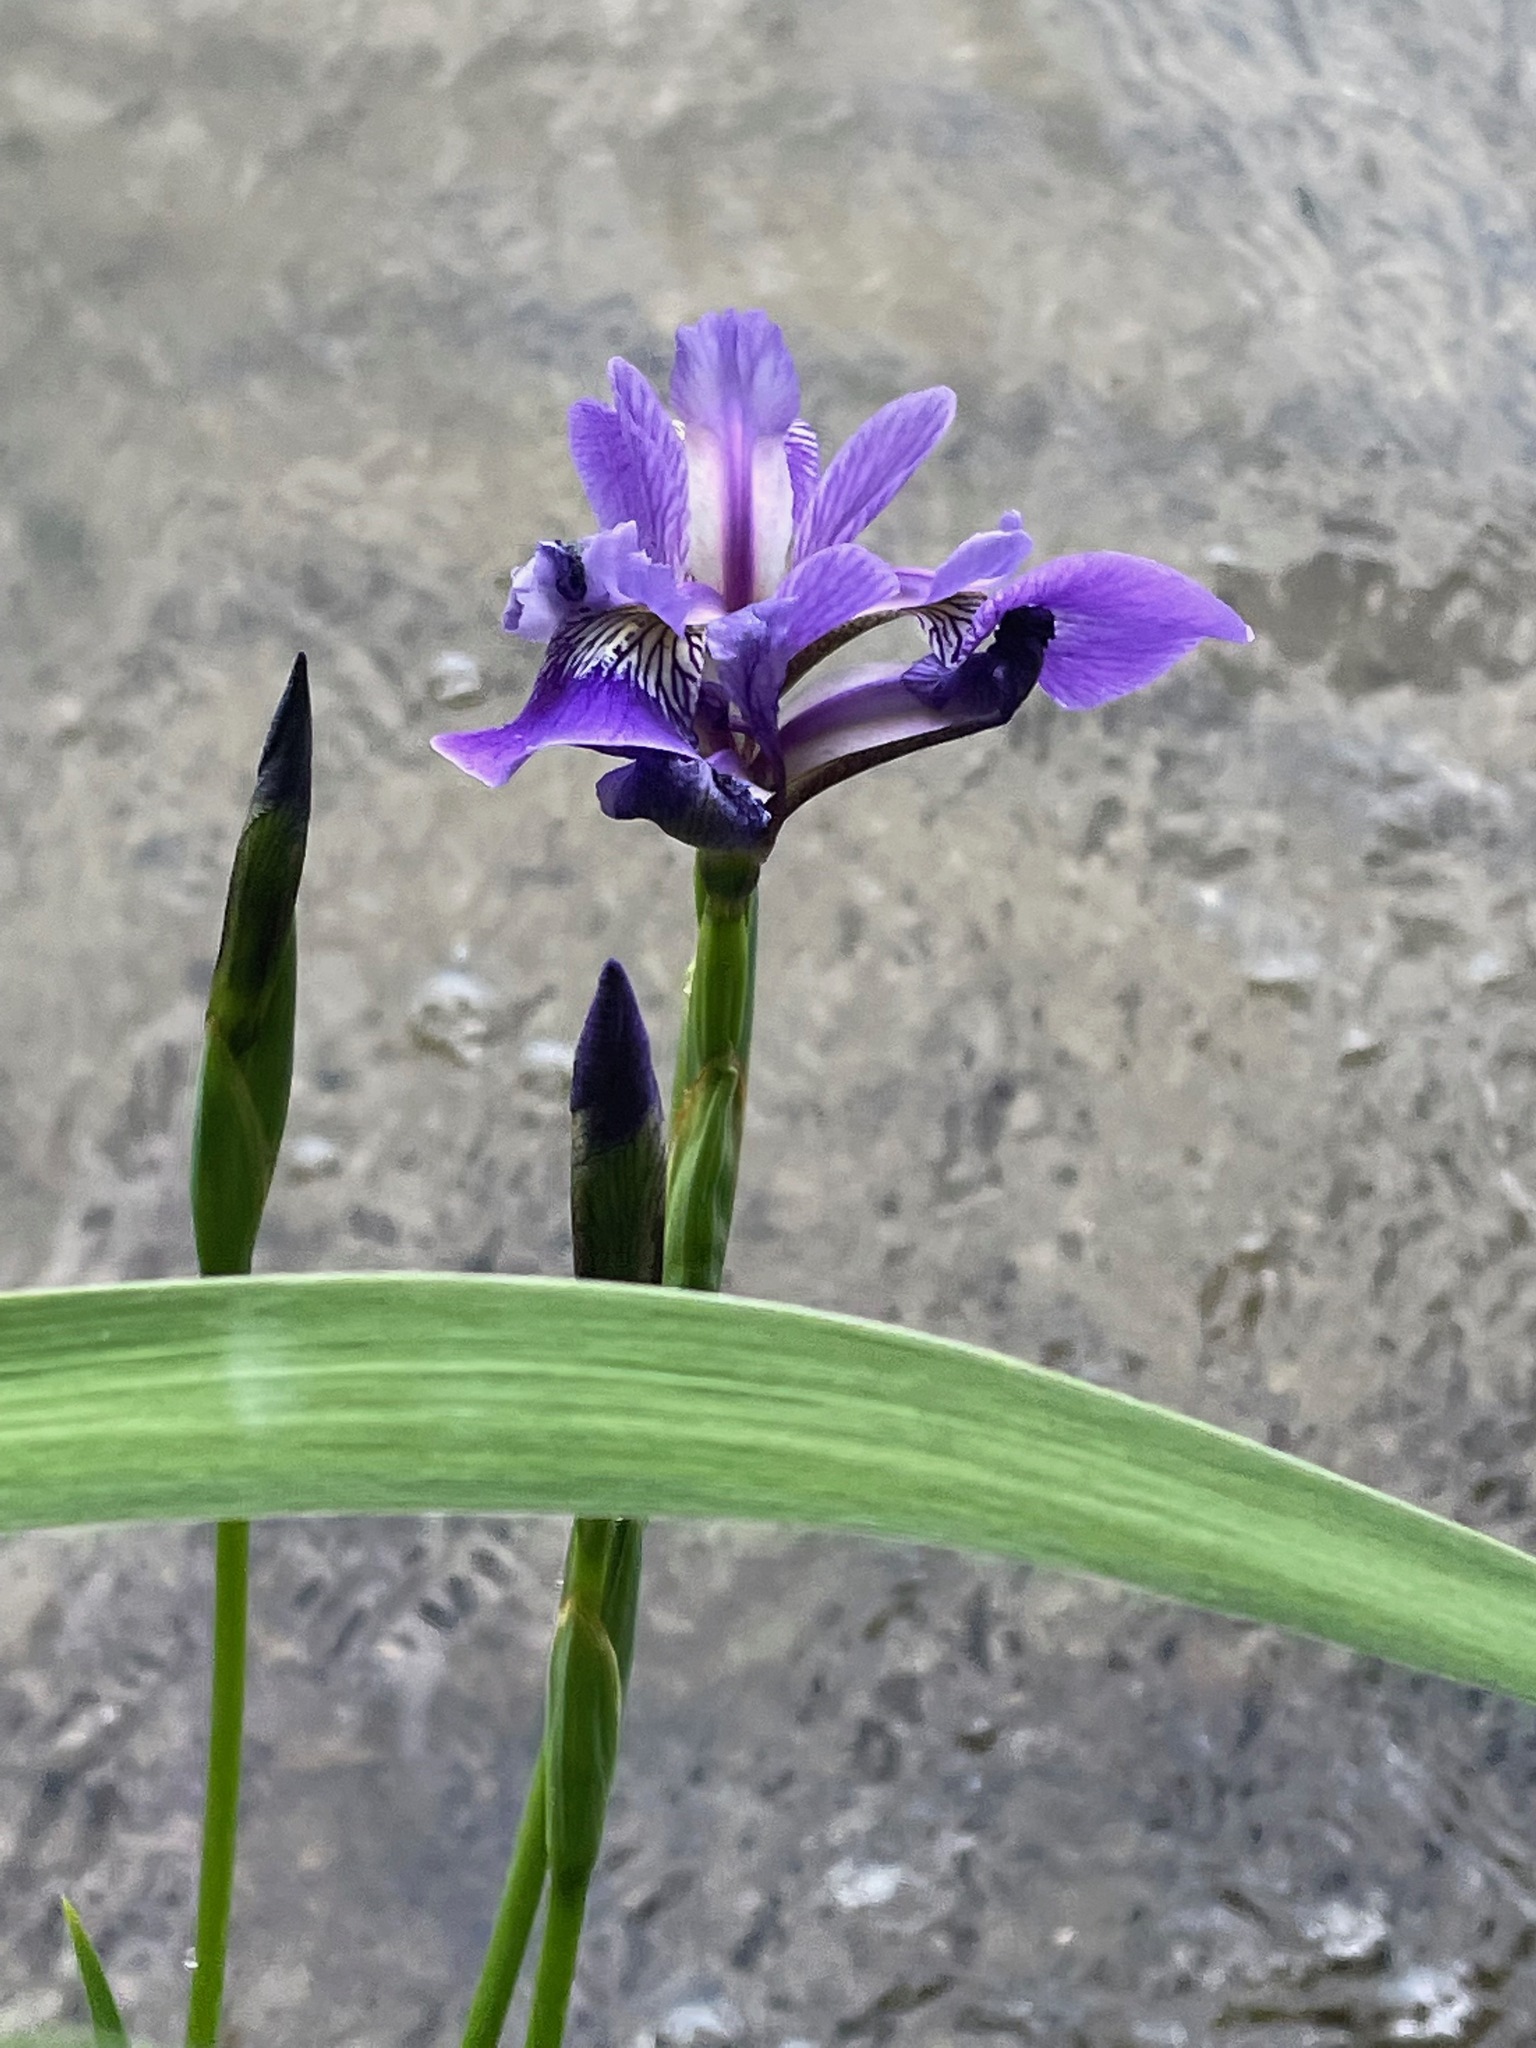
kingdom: Plantae
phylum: Tracheophyta
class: Liliopsida
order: Asparagales
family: Iridaceae
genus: Iris
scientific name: Iris versicolor
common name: Purple iris
